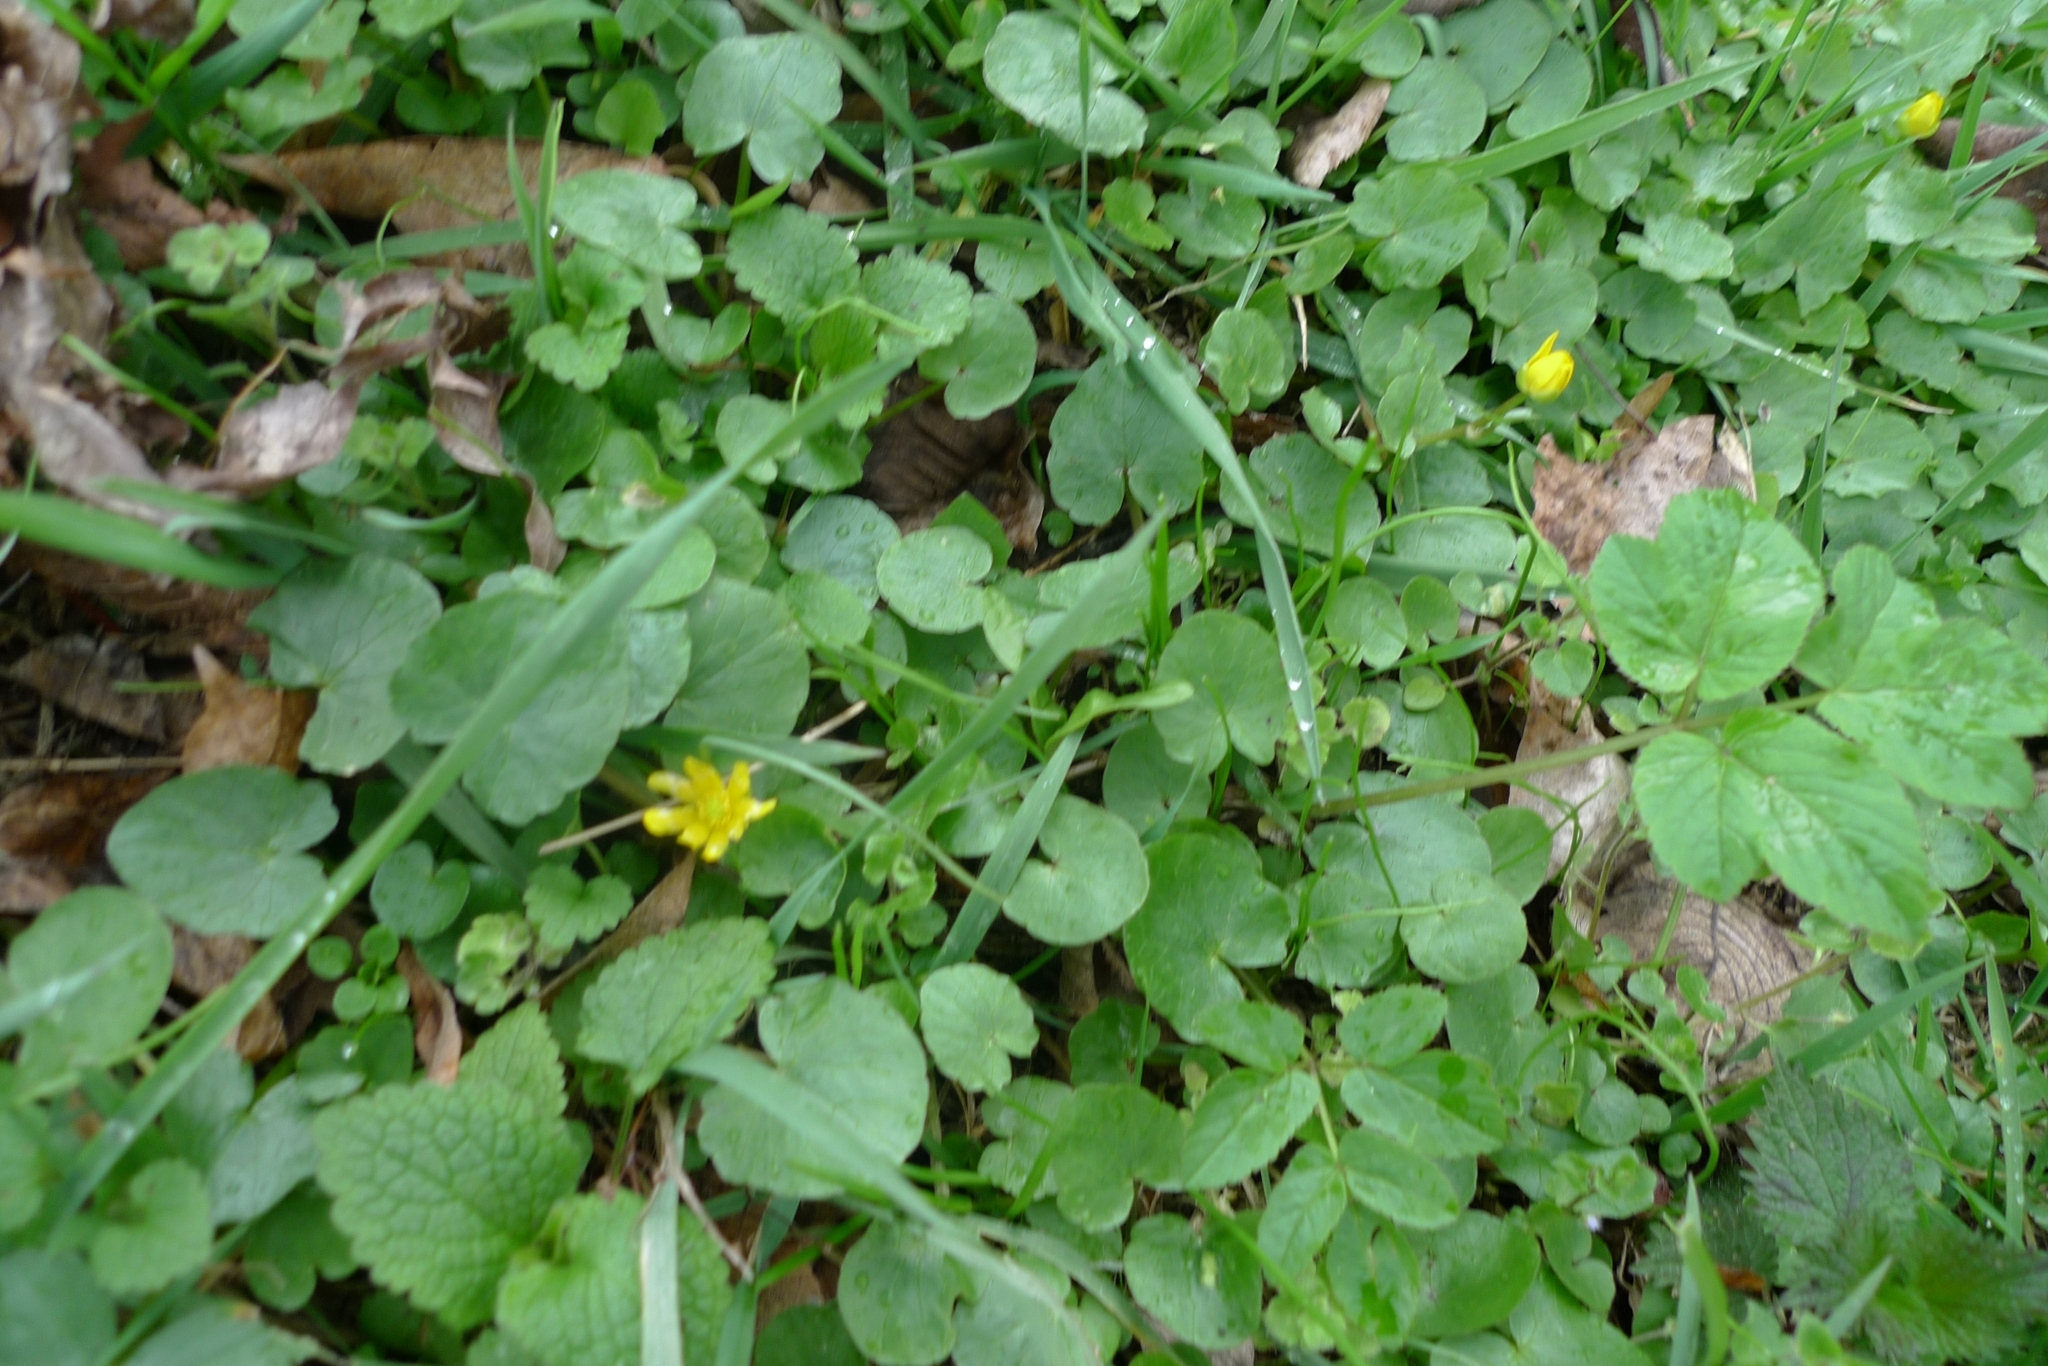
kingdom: Plantae
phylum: Tracheophyta
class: Magnoliopsida
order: Ranunculales
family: Ranunculaceae
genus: Ficaria
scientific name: Ficaria verna
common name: Lesser celandine
